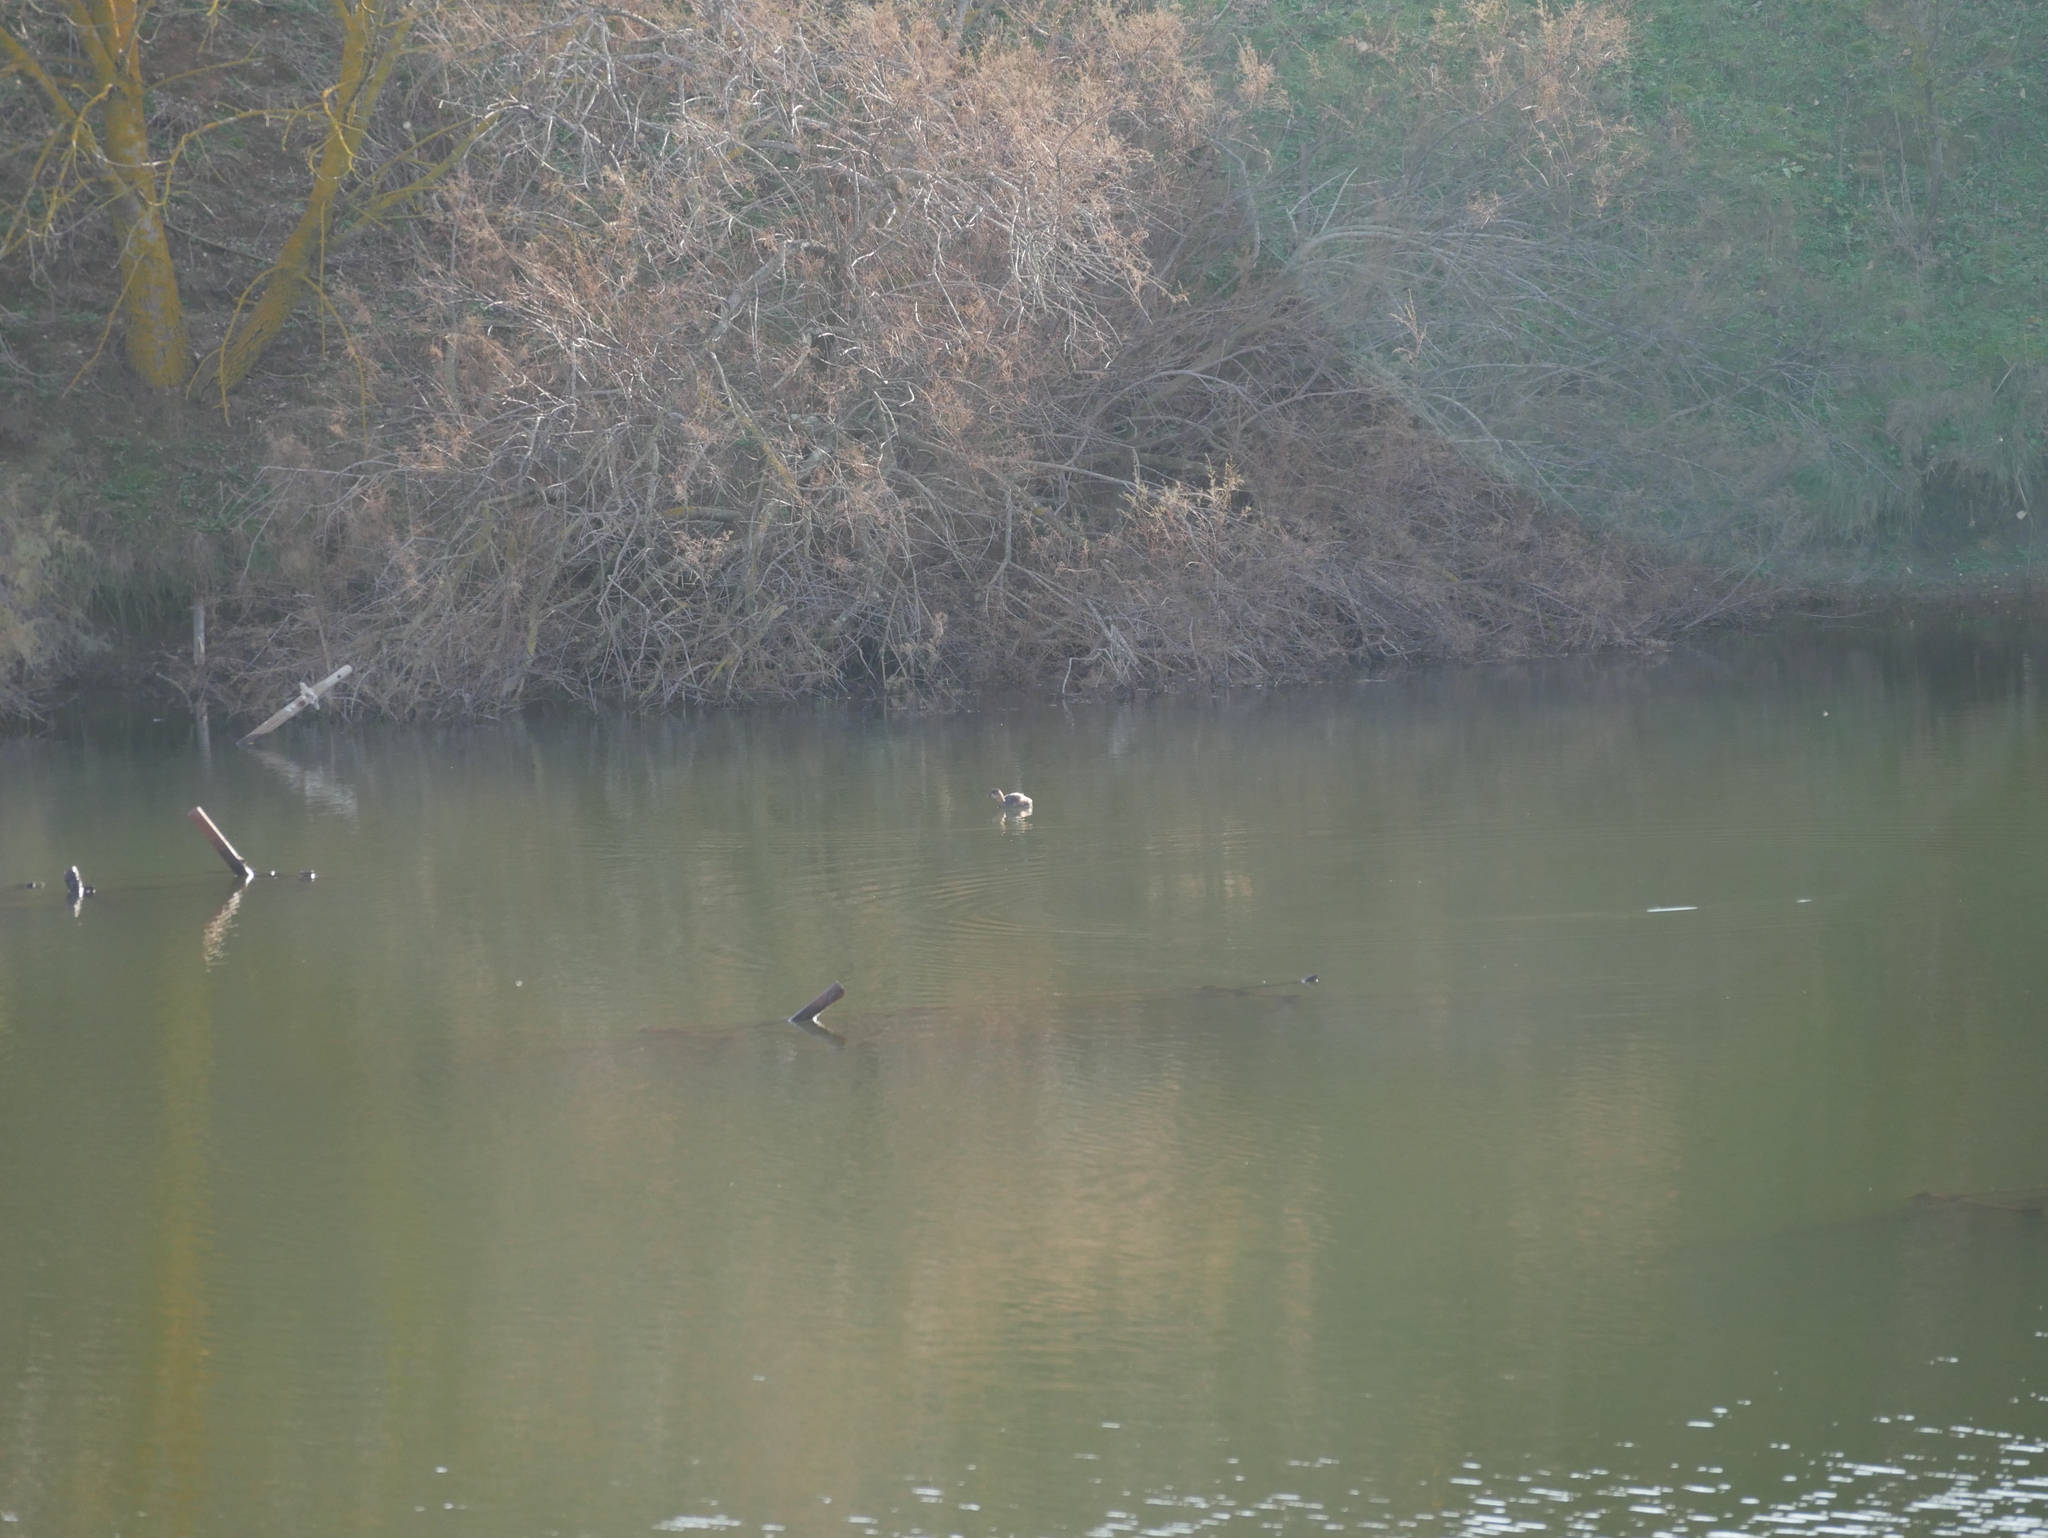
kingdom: Animalia
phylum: Chordata
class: Aves
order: Podicipediformes
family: Podicipedidae
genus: Tachybaptus
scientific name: Tachybaptus ruficollis
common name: Little grebe
